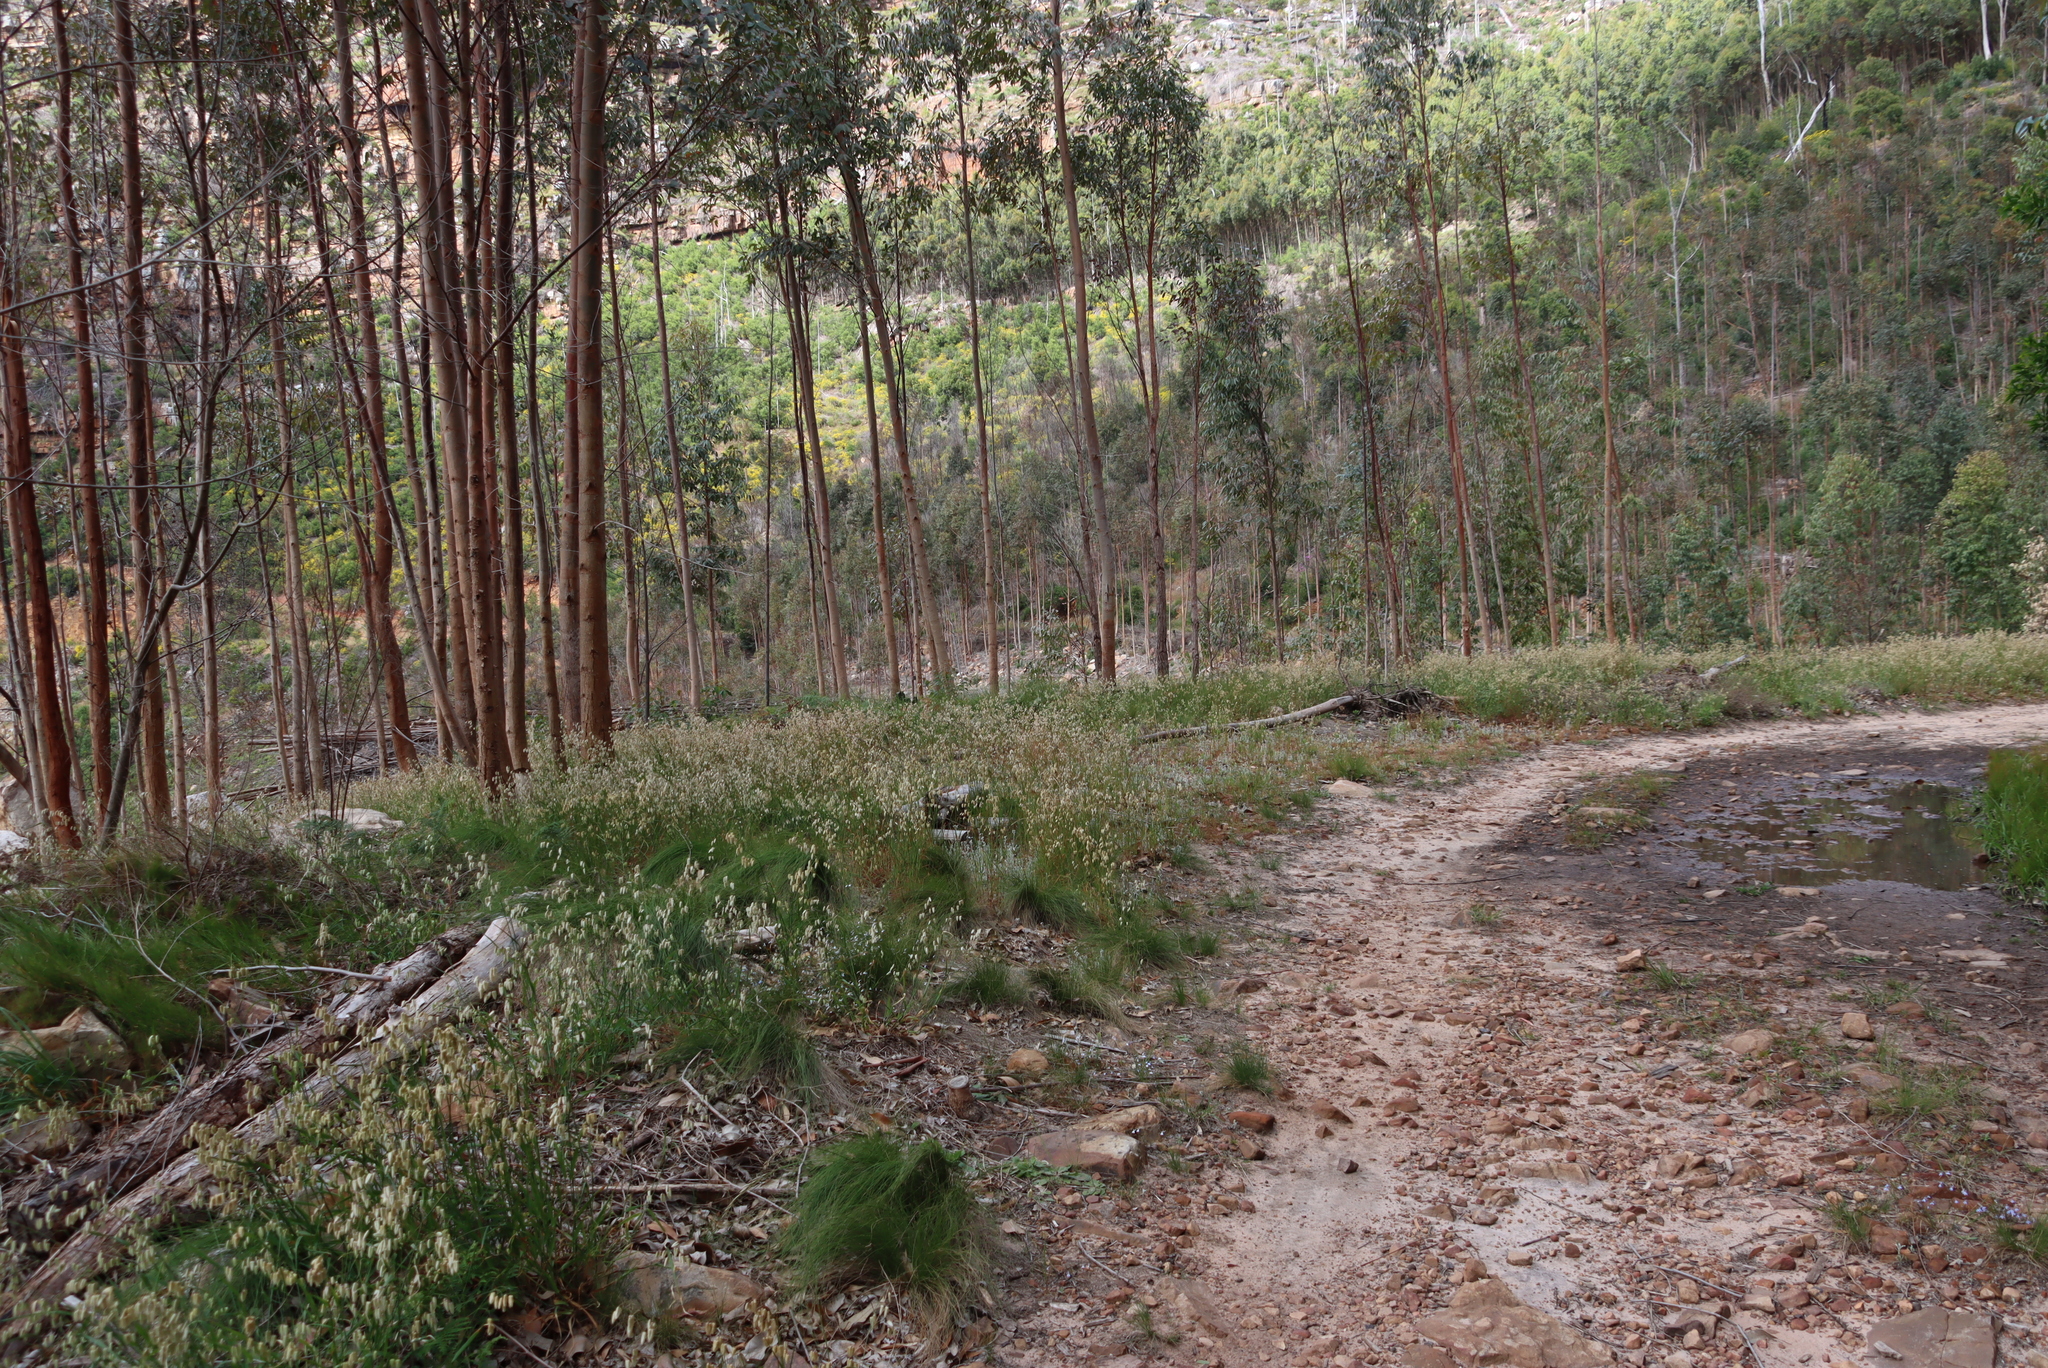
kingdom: Plantae
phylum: Tracheophyta
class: Liliopsida
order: Poales
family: Poaceae
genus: Briza
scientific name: Briza maxima
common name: Big quakinggrass
